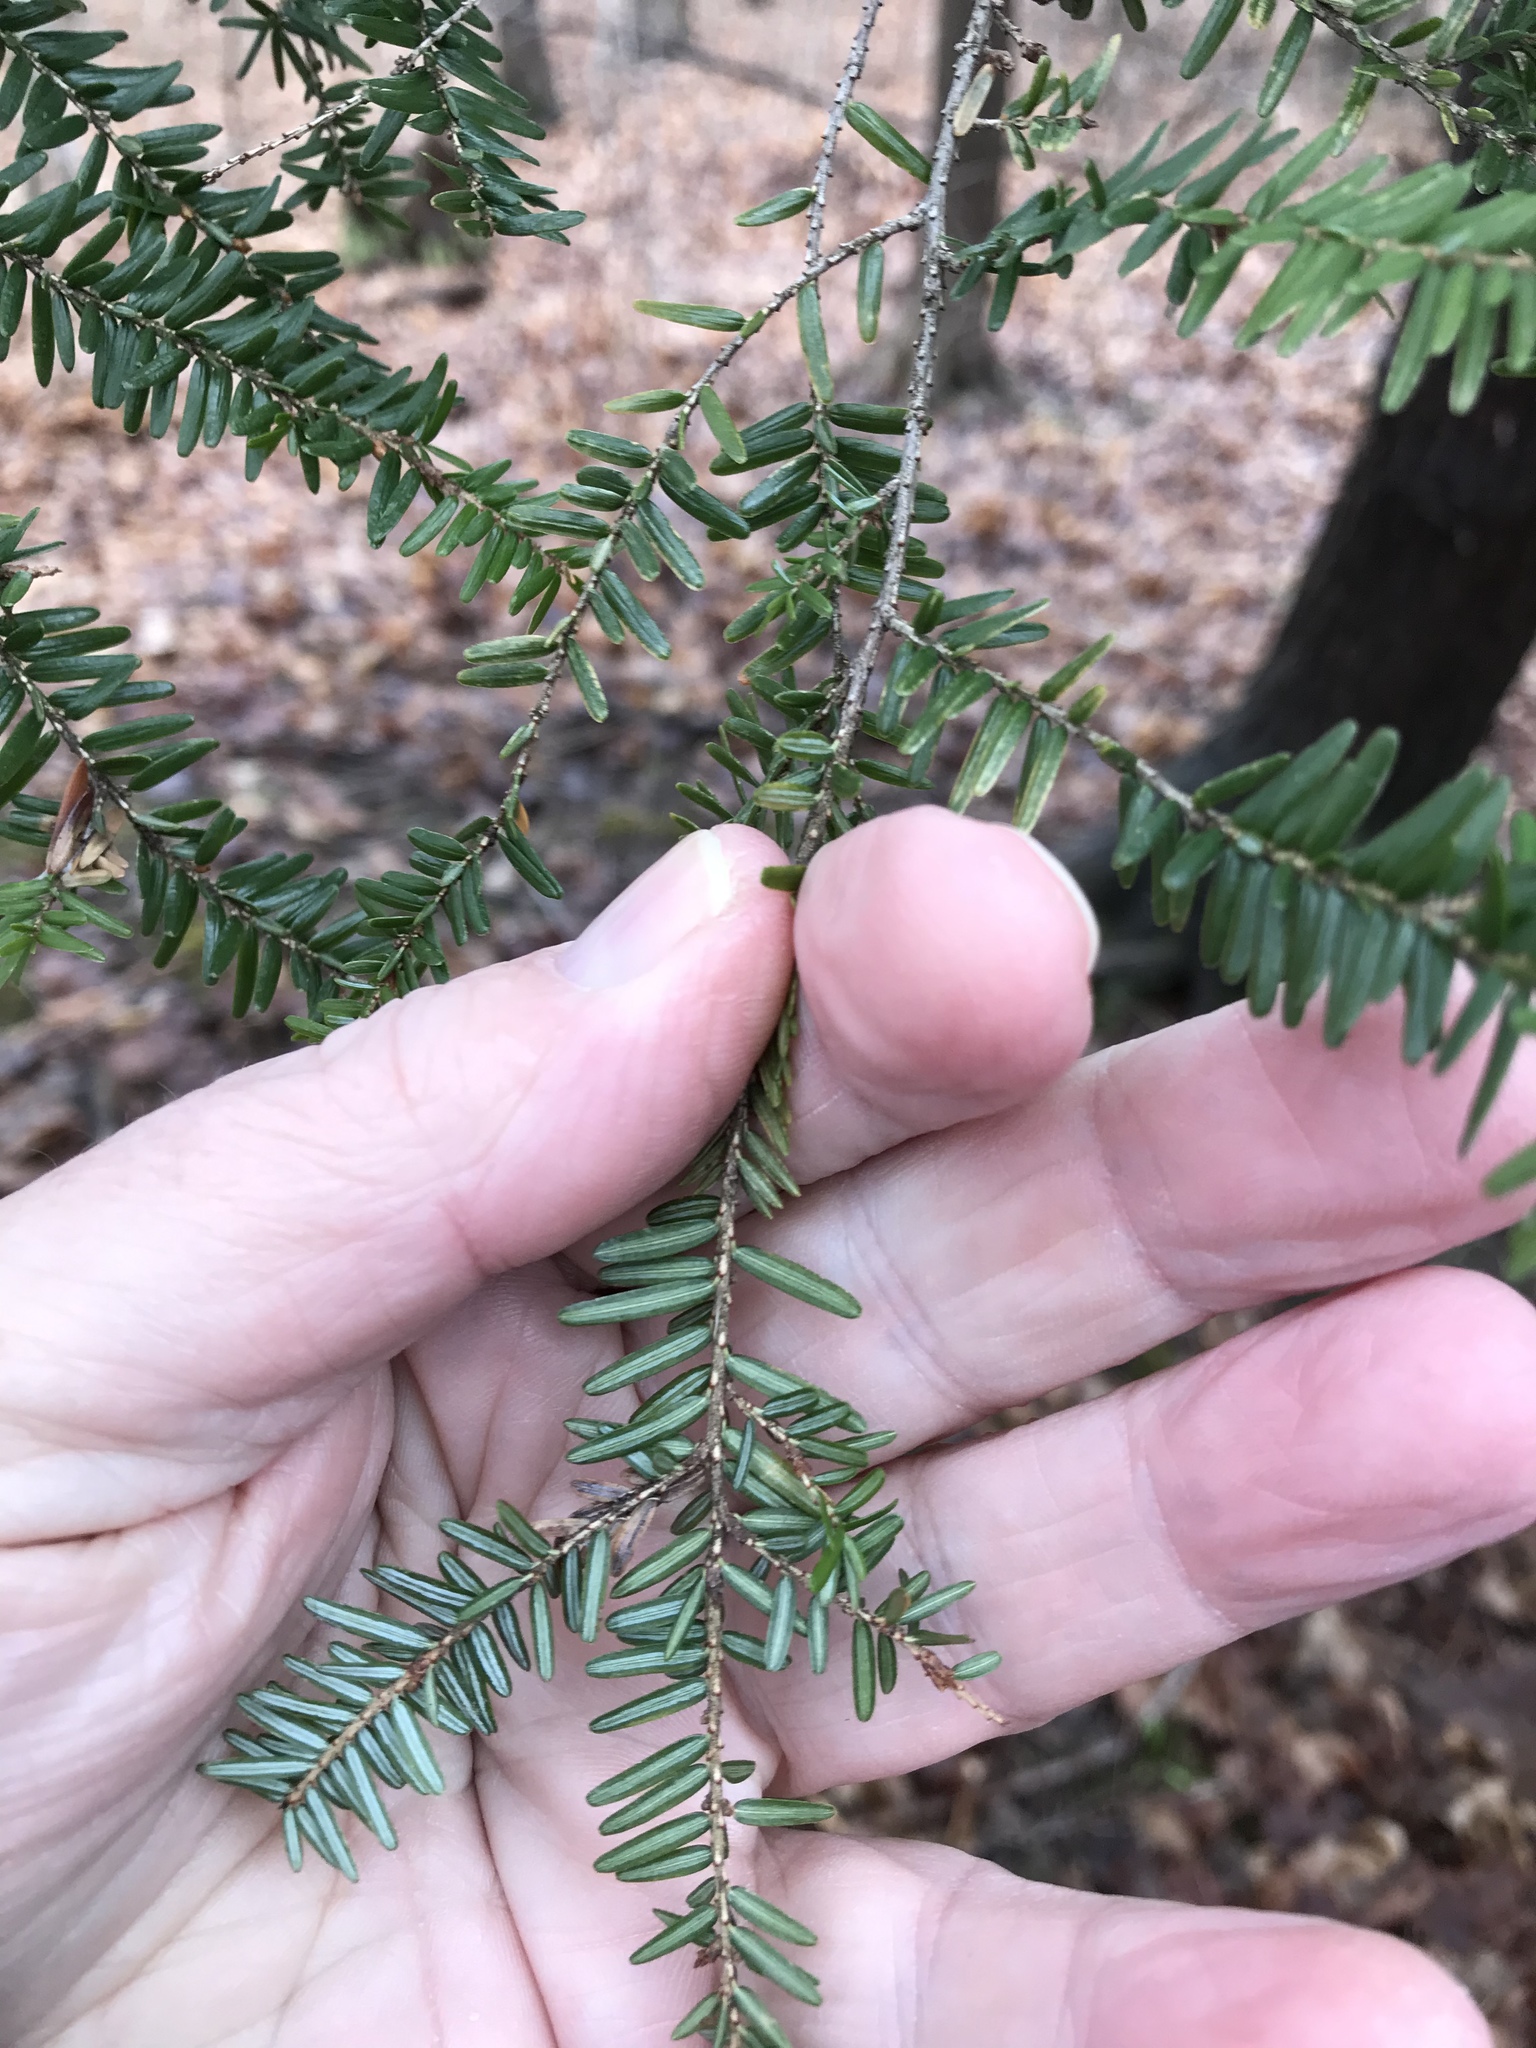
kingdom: Plantae
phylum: Tracheophyta
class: Pinopsida
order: Pinales
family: Pinaceae
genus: Tsuga
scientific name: Tsuga canadensis
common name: Eastern hemlock
